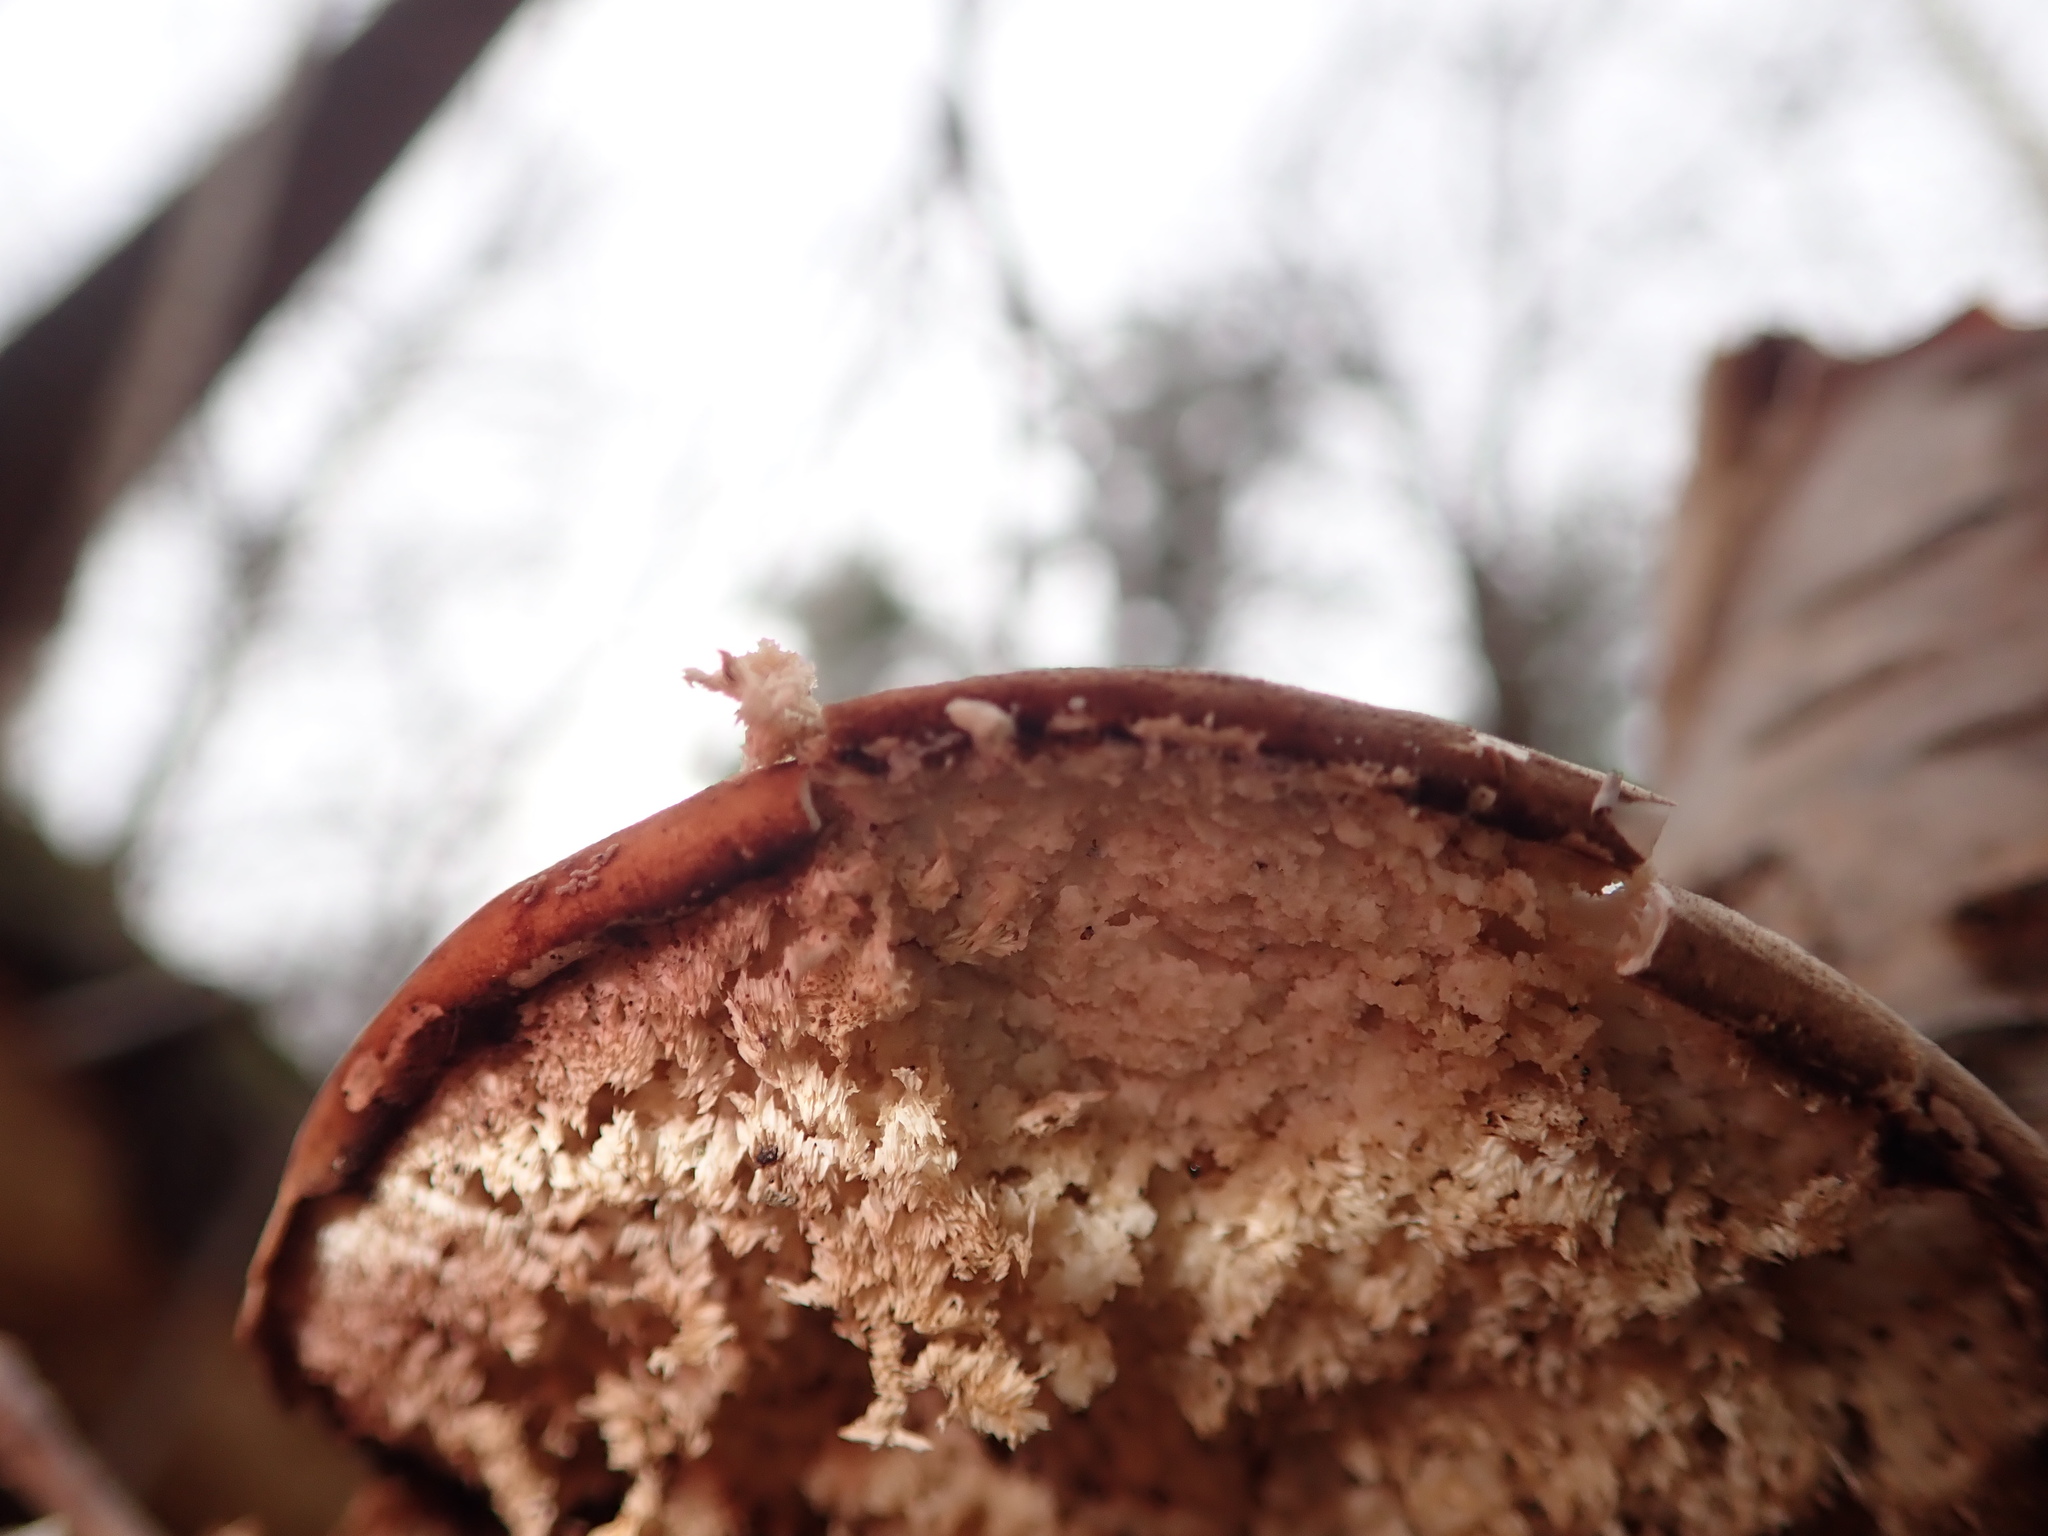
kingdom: Fungi
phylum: Basidiomycota
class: Agaricomycetes
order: Polyporales
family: Fomitopsidaceae
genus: Fomitopsis
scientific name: Fomitopsis betulina
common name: Birch polypore
